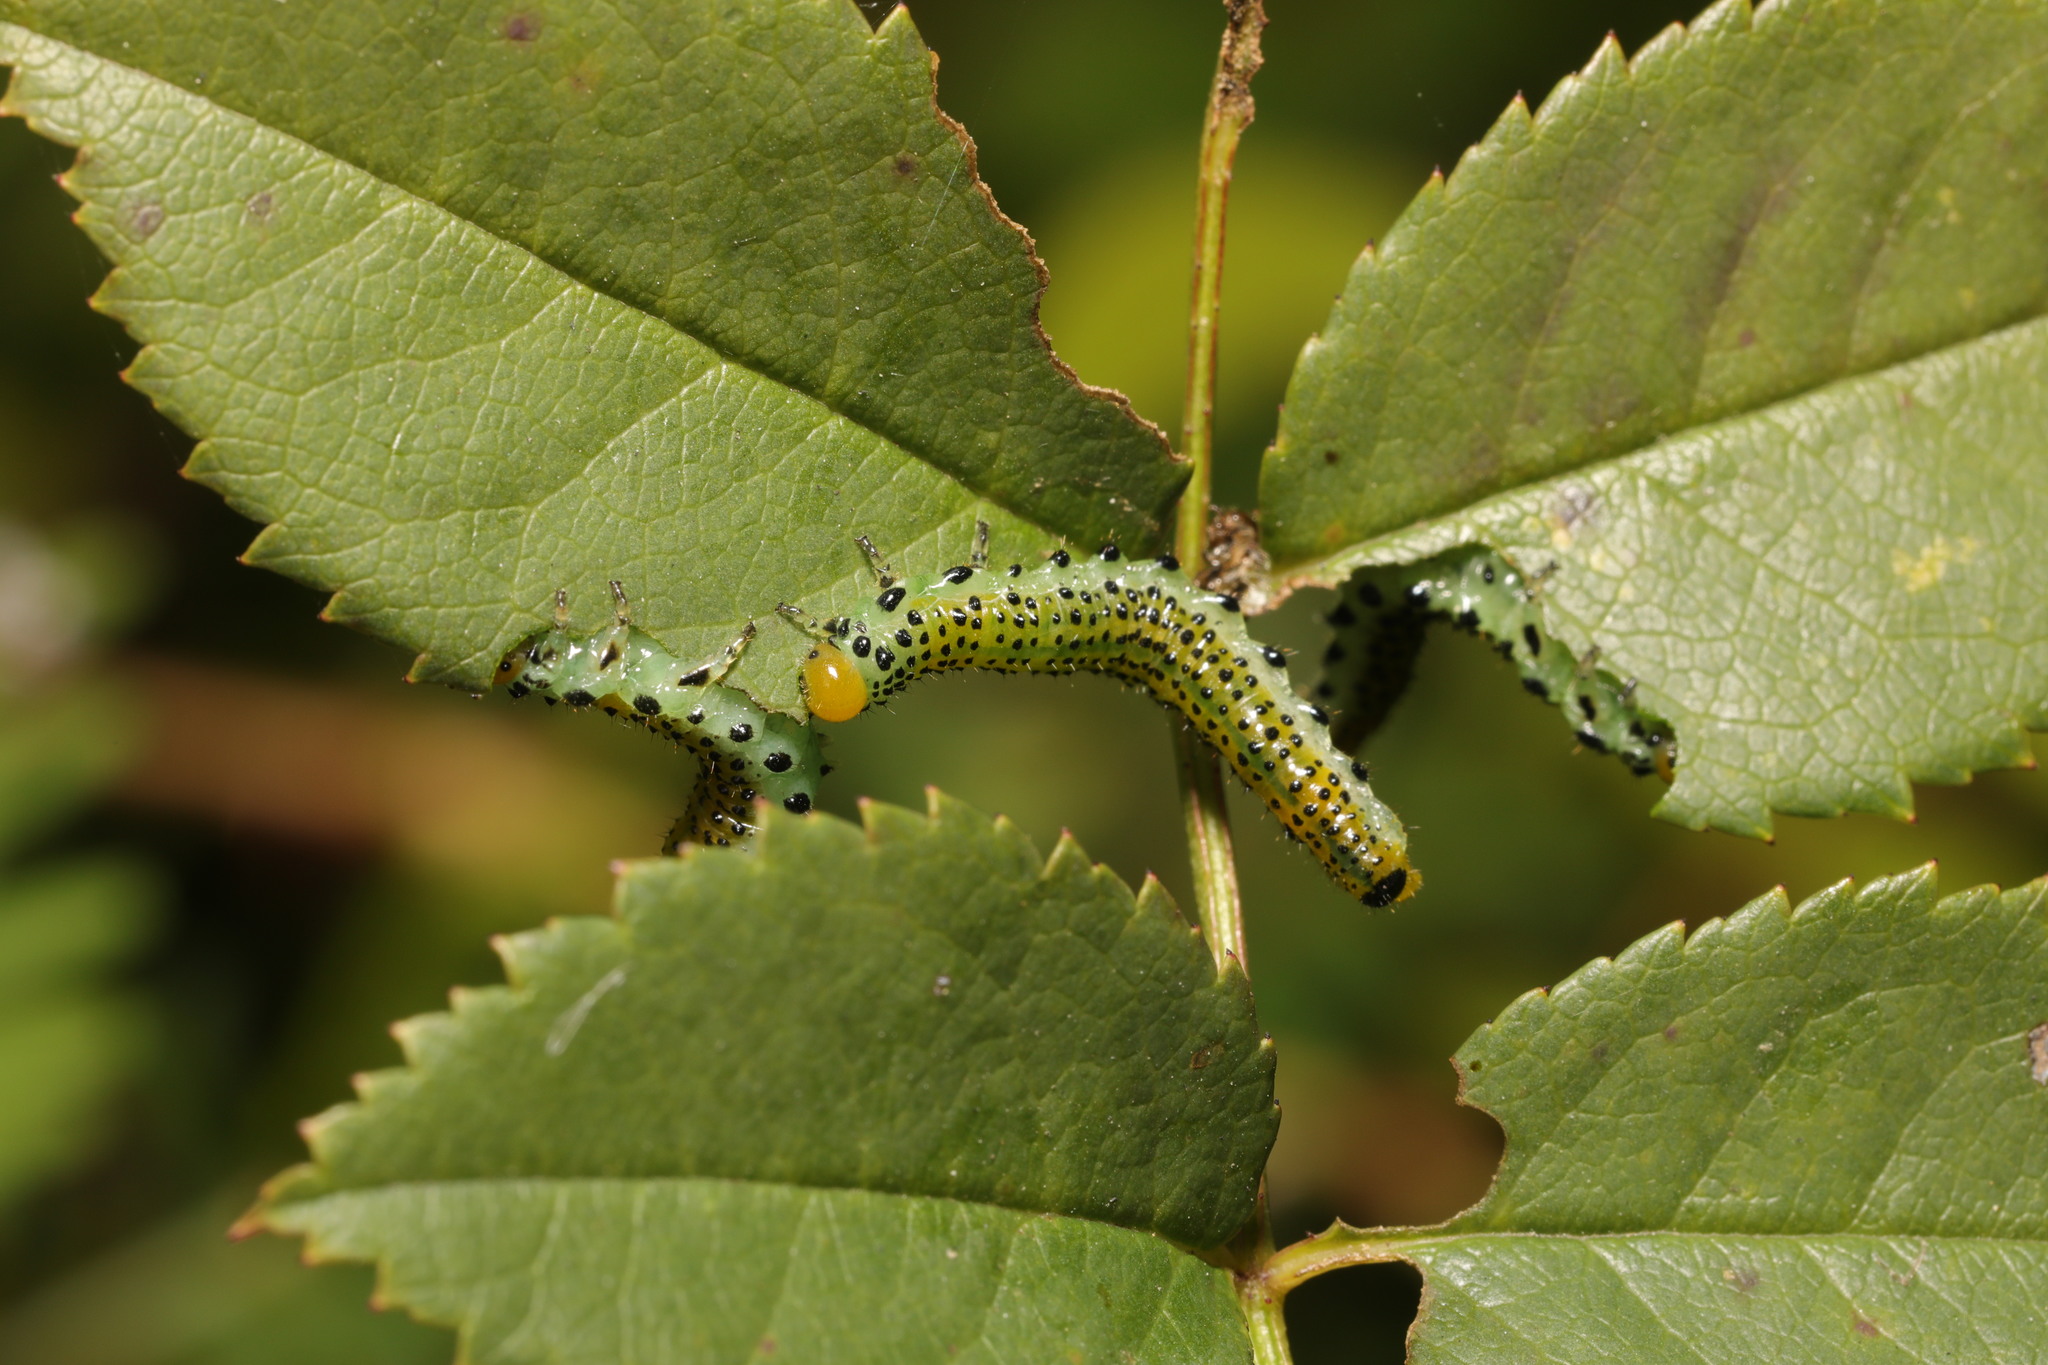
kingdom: Animalia
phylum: Arthropoda
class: Insecta
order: Hymenoptera
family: Argidae
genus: Arge
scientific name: Arge pagana
